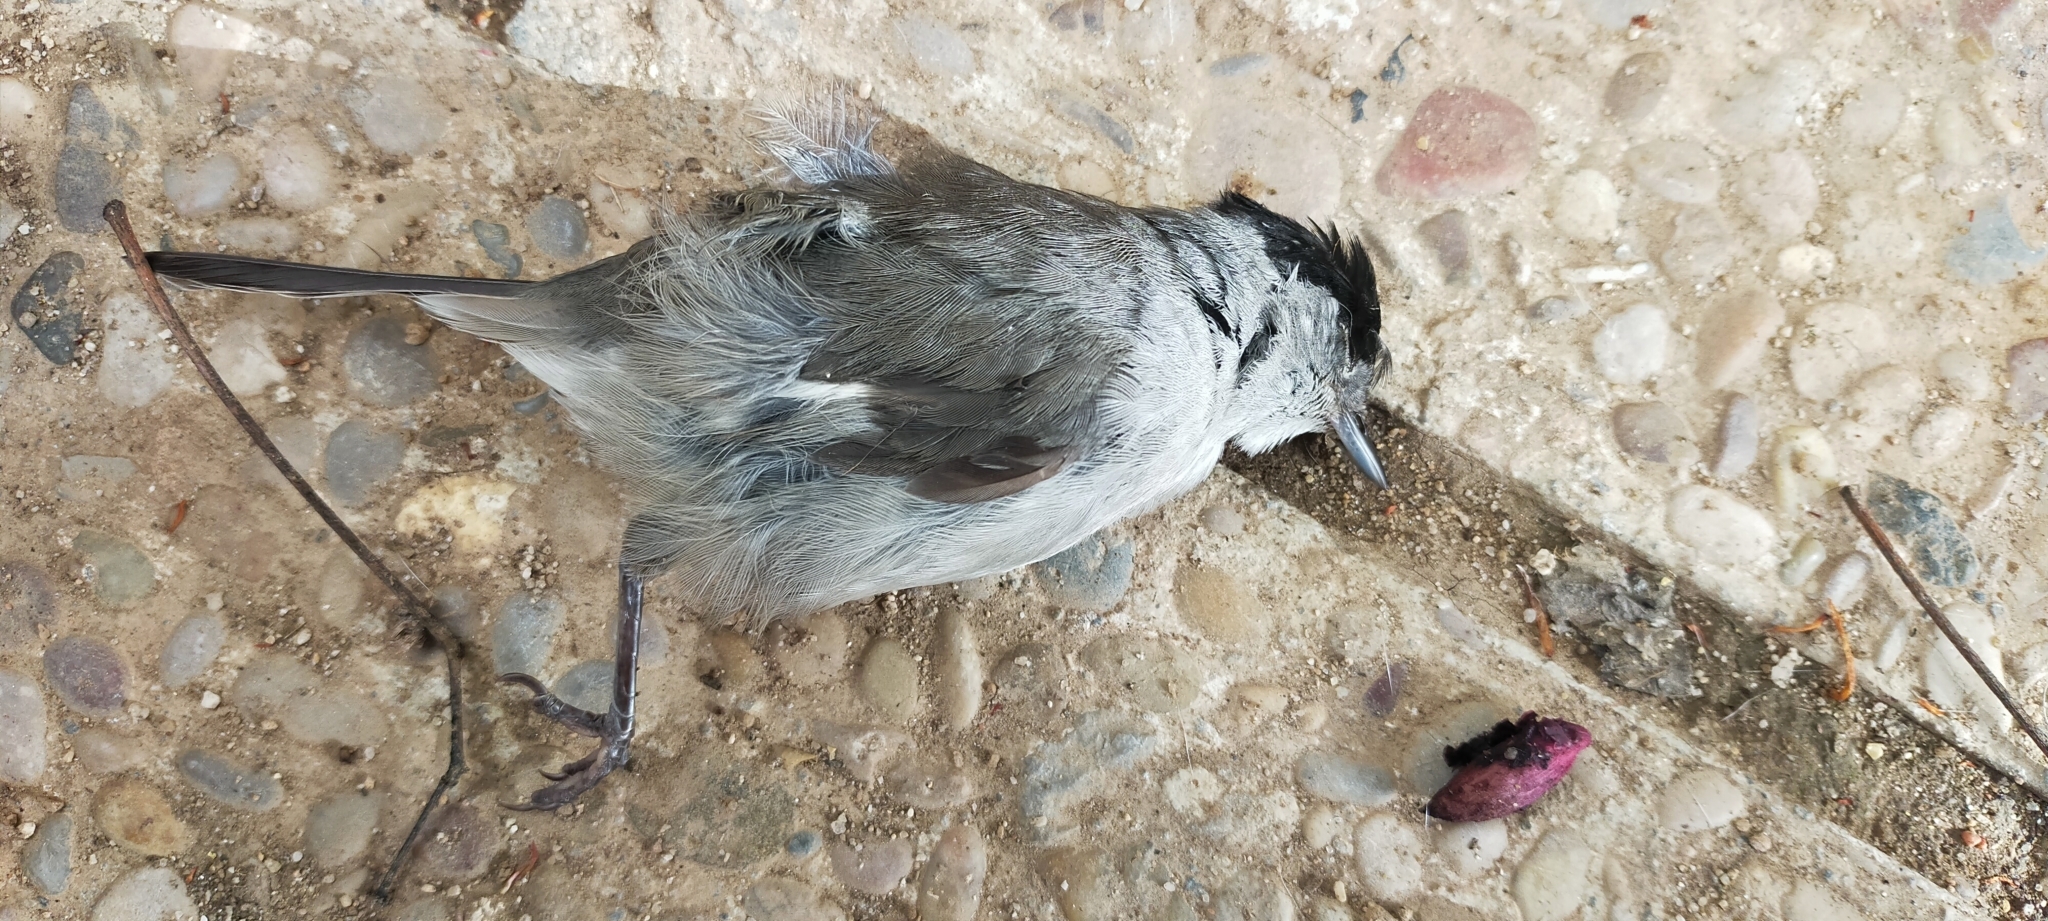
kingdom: Animalia
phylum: Chordata
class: Aves
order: Passeriformes
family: Sylviidae
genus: Sylvia
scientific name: Sylvia atricapilla
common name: Eurasian blackcap
